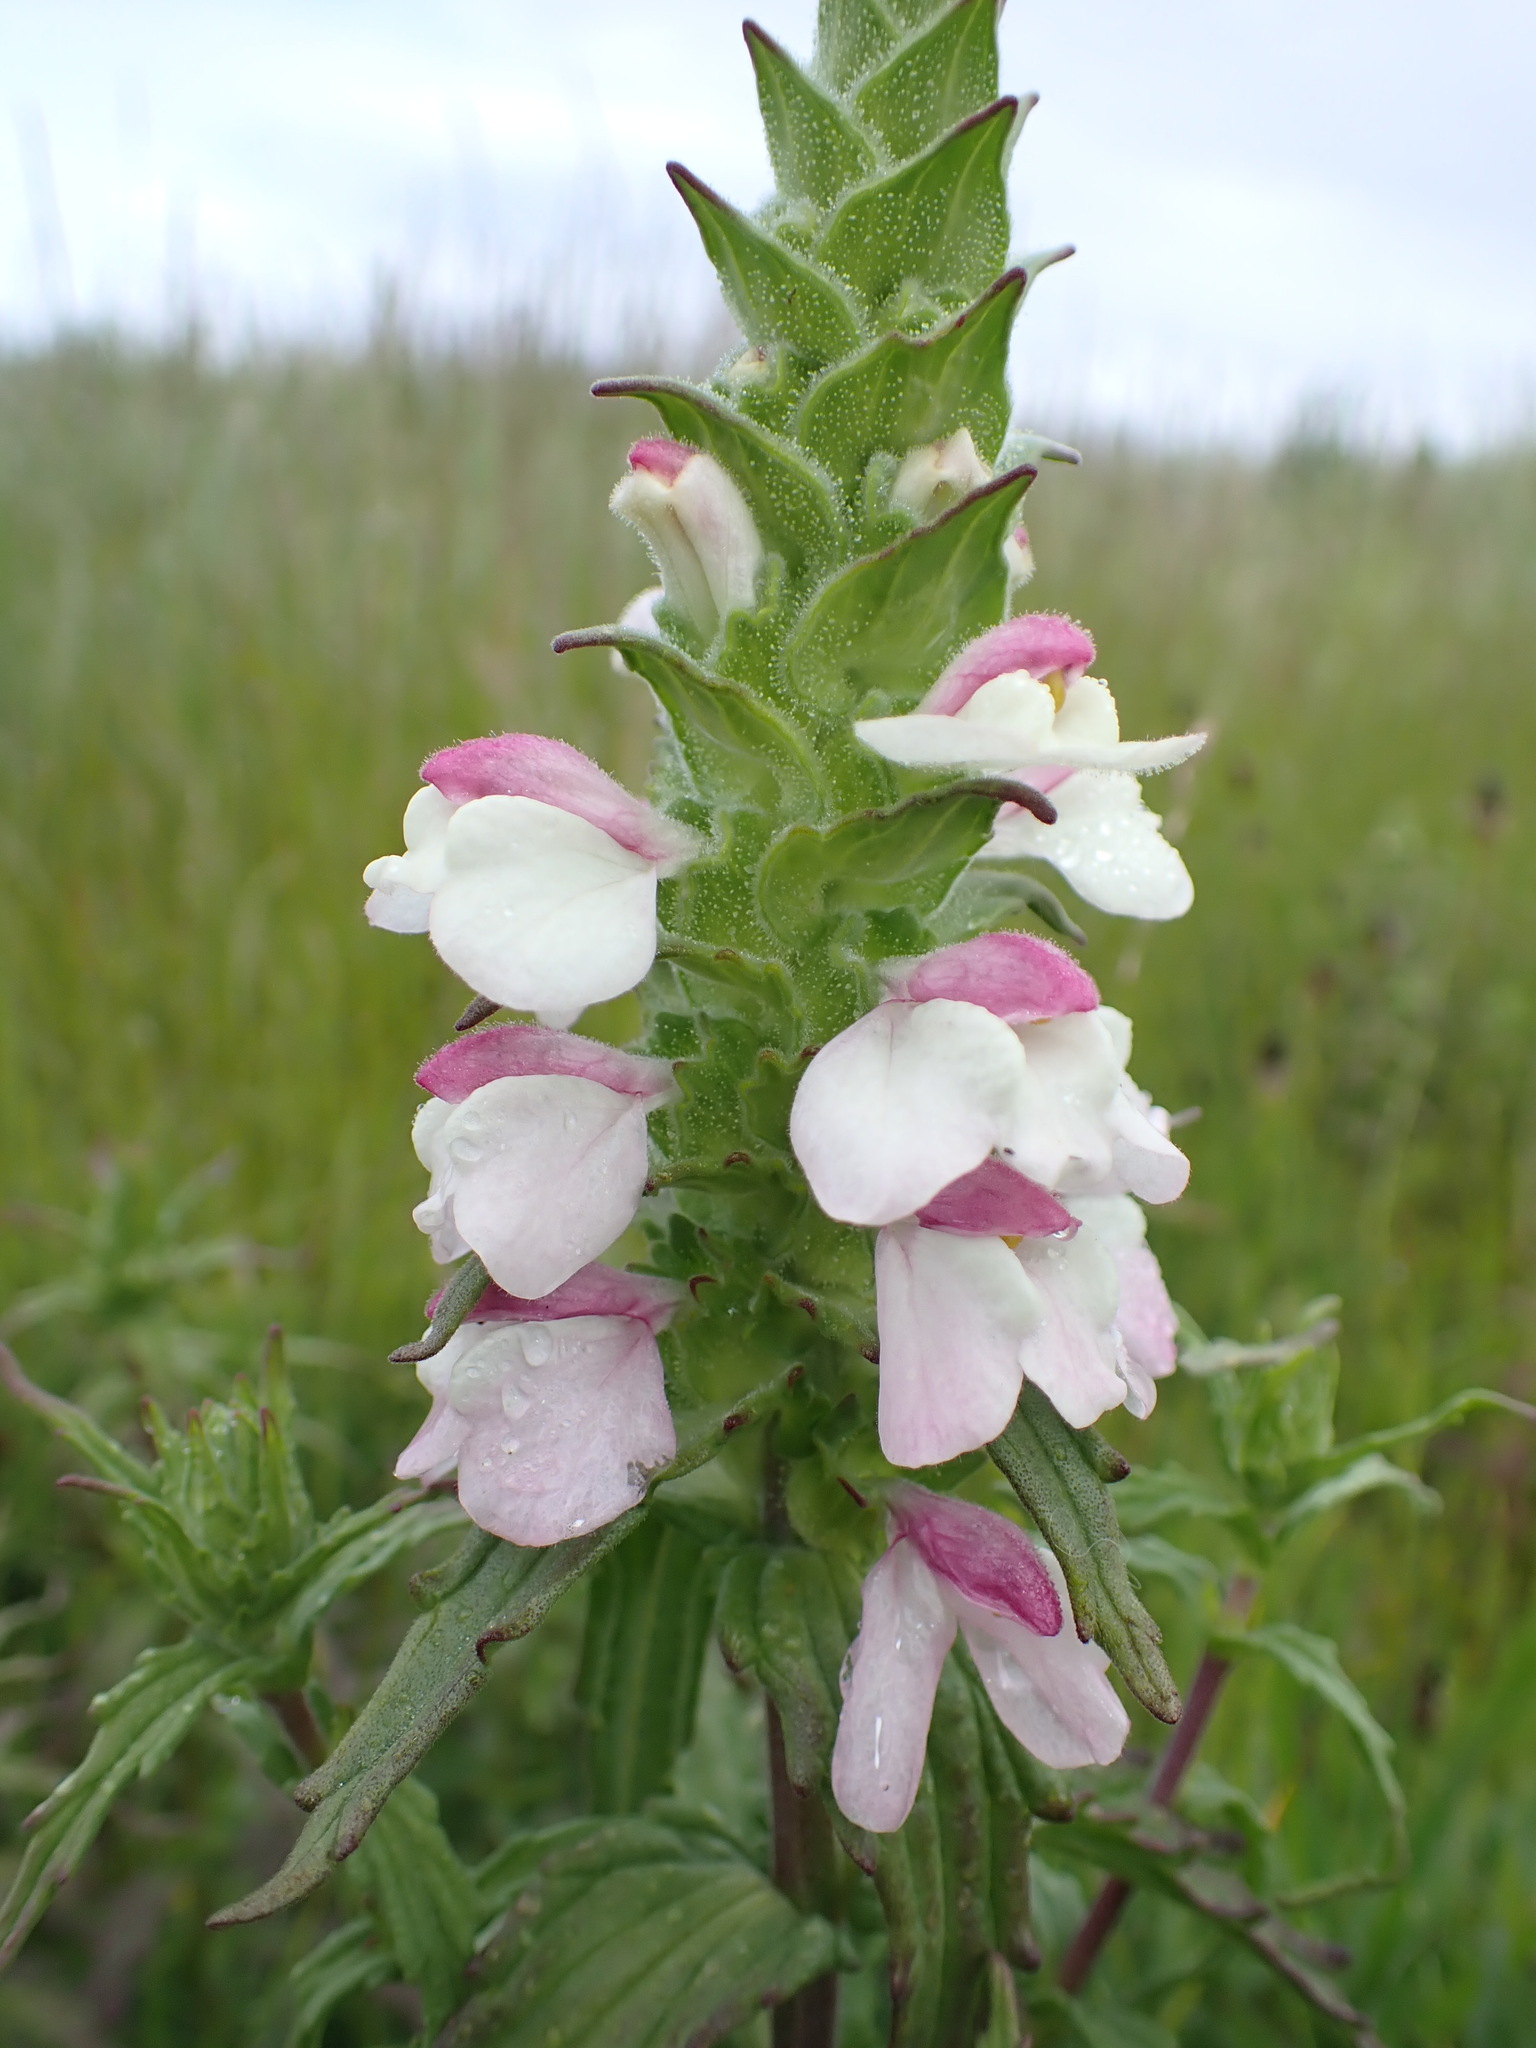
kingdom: Plantae
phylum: Tracheophyta
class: Magnoliopsida
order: Lamiales
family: Orobanchaceae
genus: Bellardia
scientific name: Bellardia trixago
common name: Mediterranean lineseed
